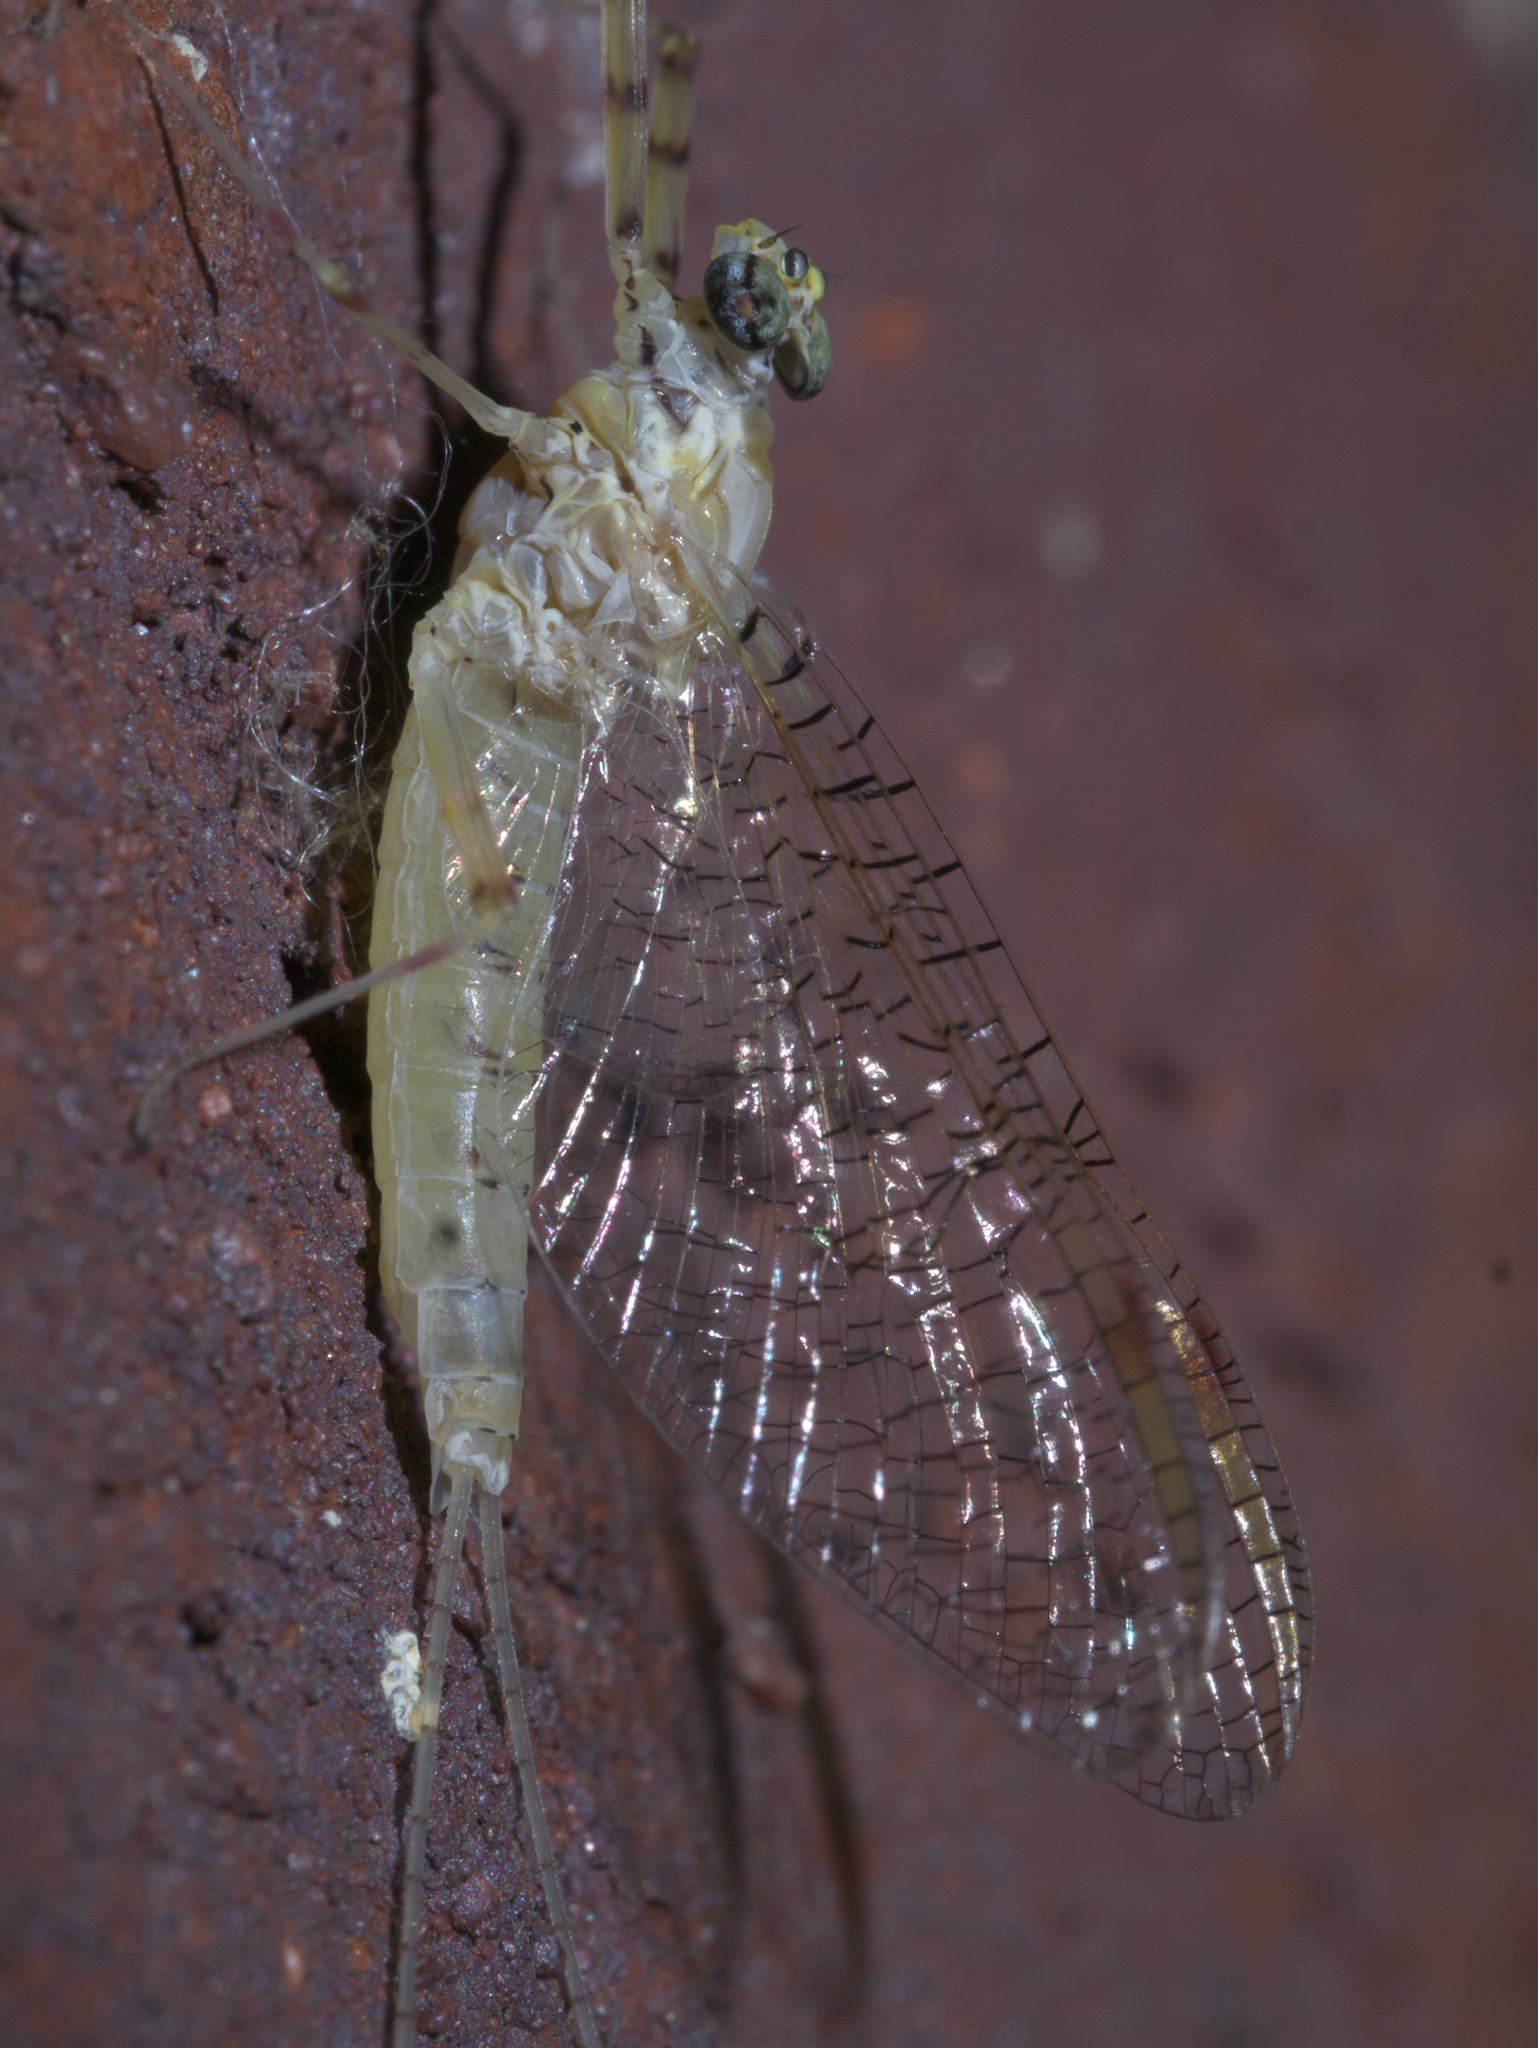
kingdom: Animalia
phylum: Arthropoda
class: Insecta
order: Ephemeroptera
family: Heptageniidae
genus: Stenonema
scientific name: Stenonema femoratum
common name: Dark cahill
